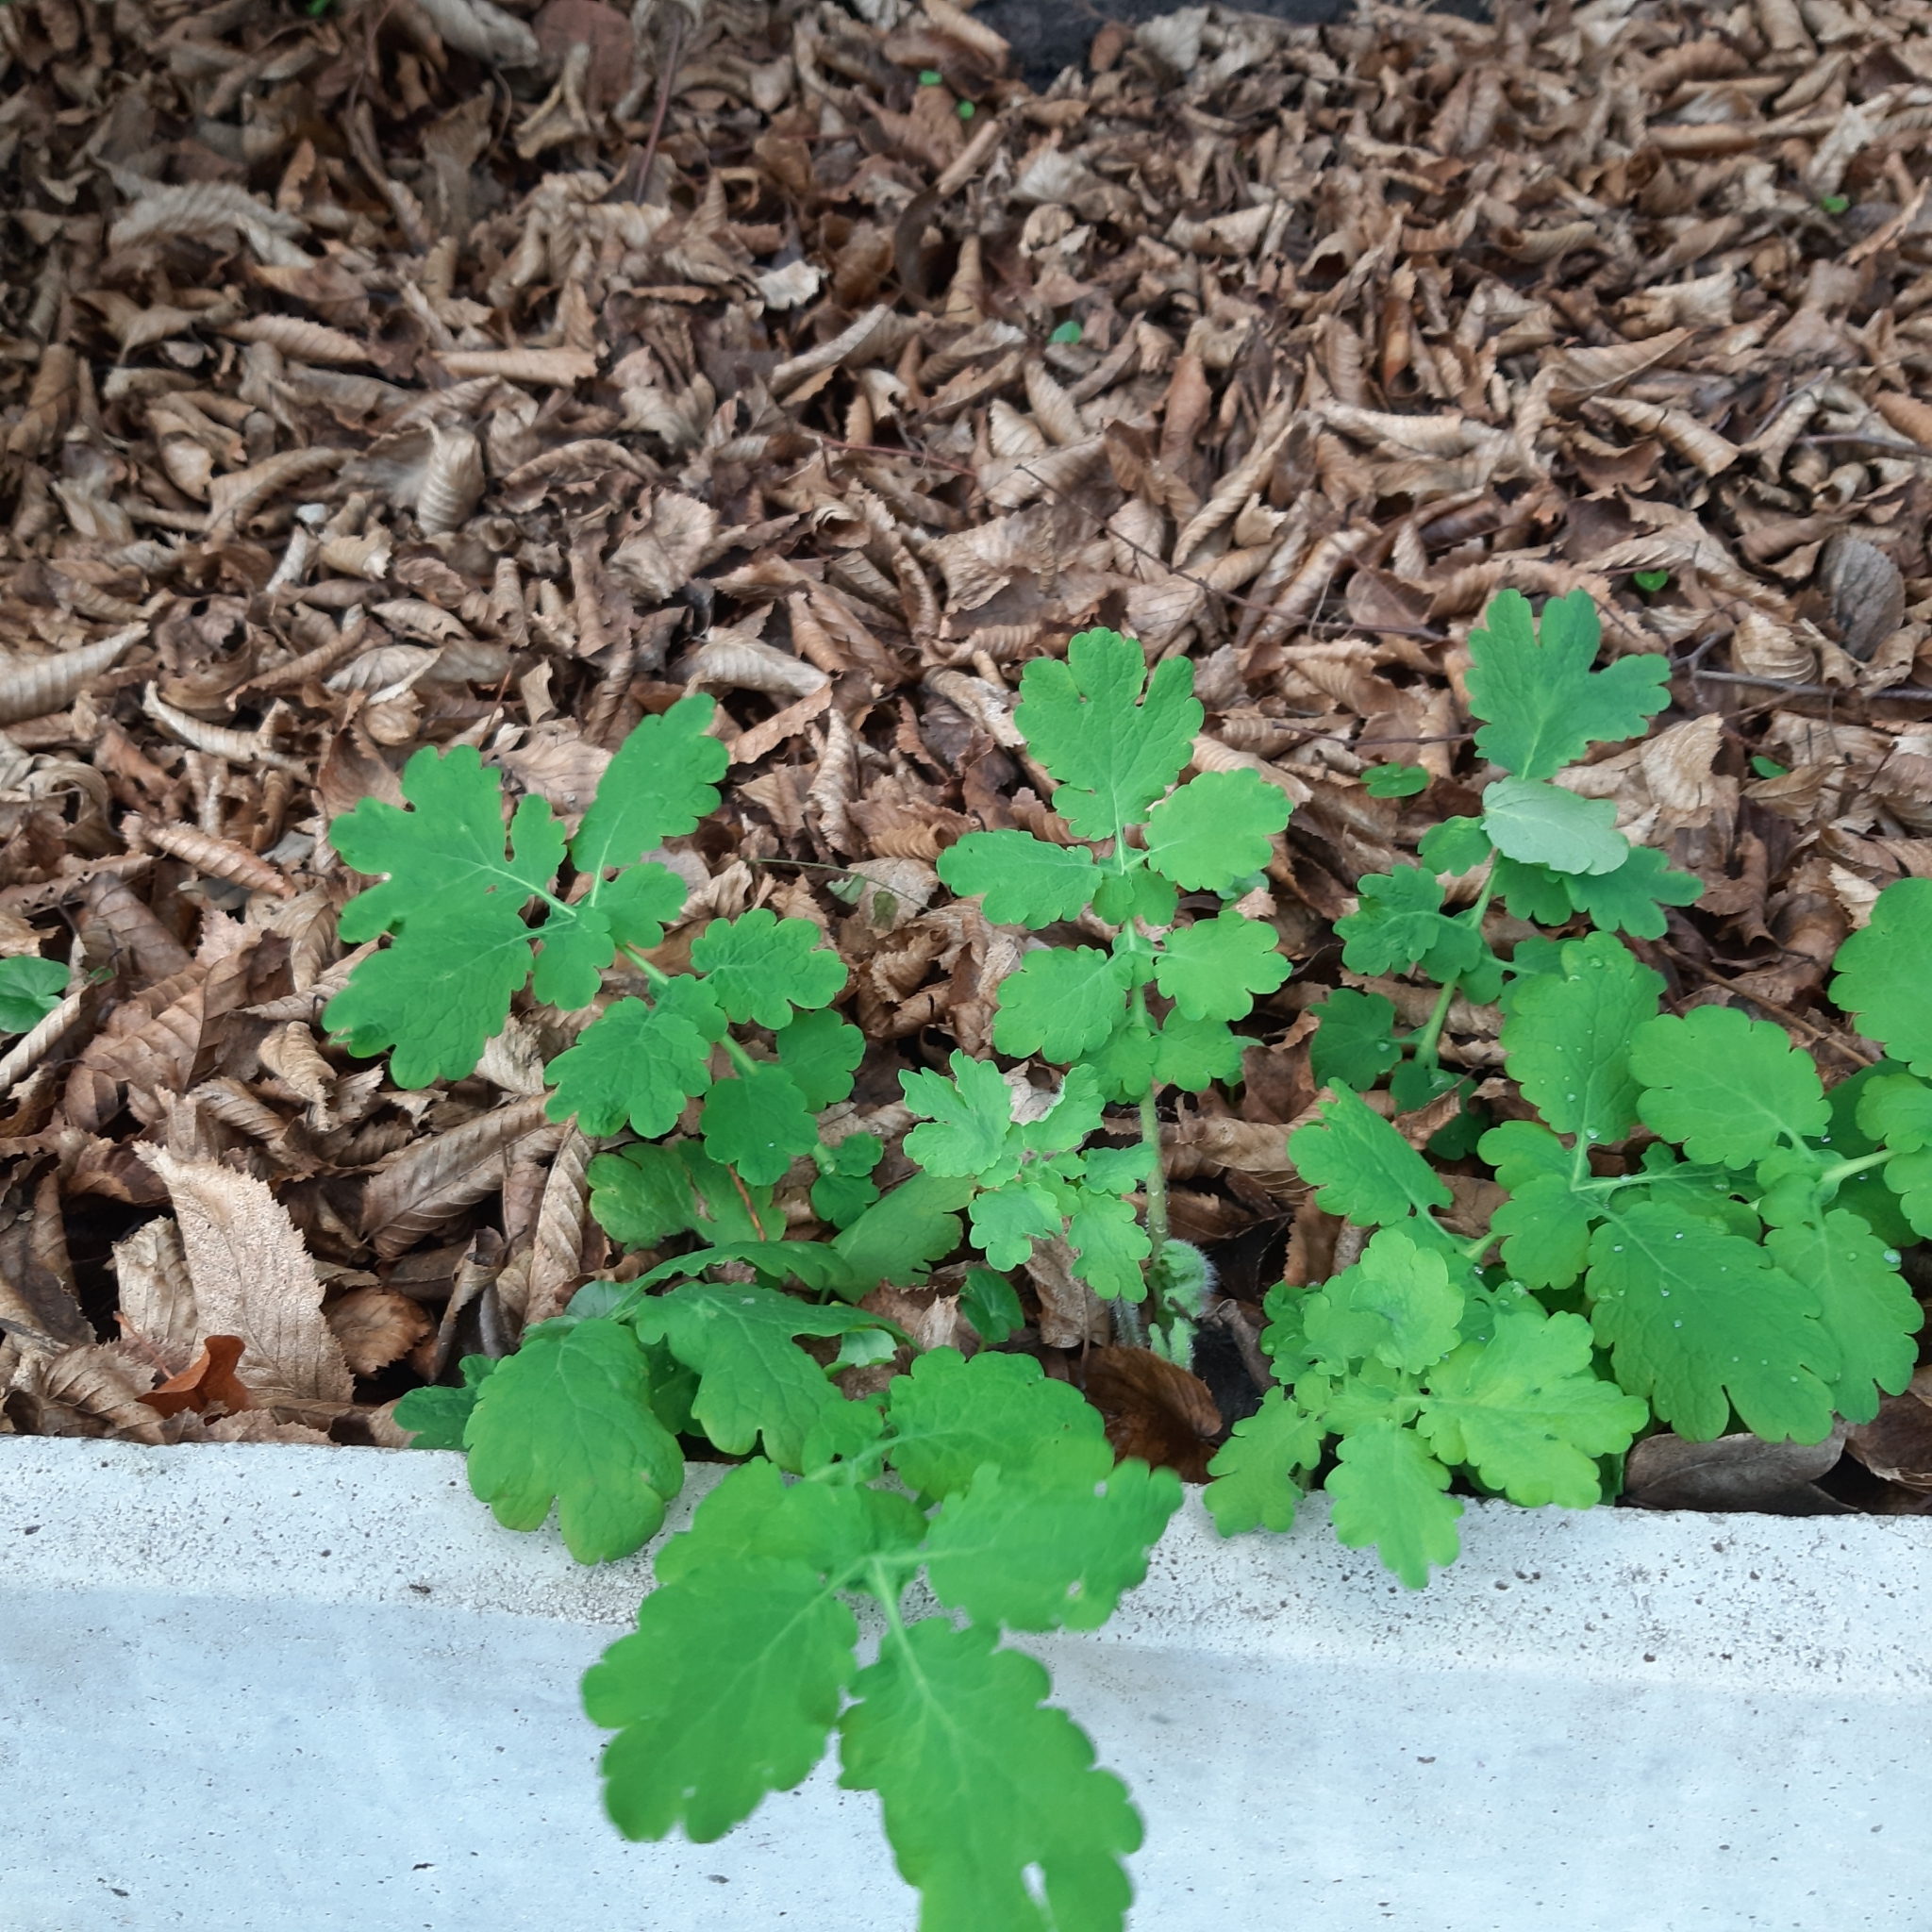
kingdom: Plantae
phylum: Tracheophyta
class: Magnoliopsida
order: Ranunculales
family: Papaveraceae
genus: Chelidonium
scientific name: Chelidonium majus
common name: Greater celandine
